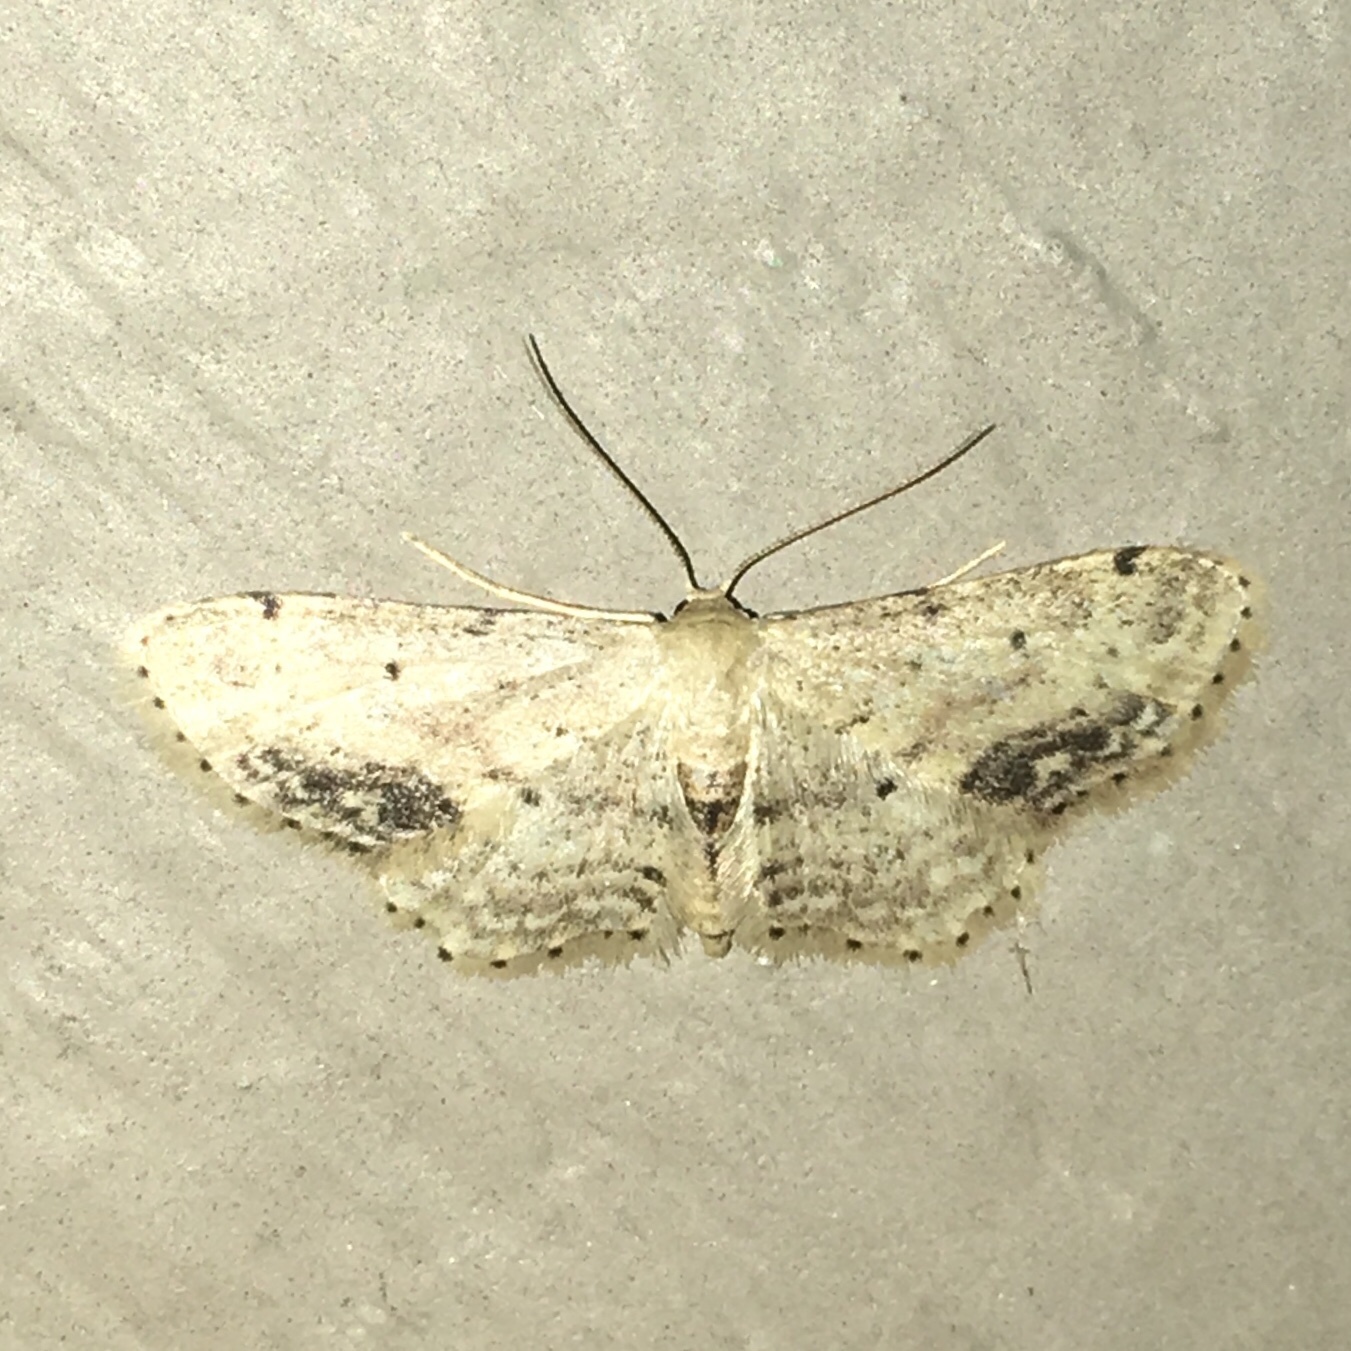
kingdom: Animalia
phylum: Arthropoda
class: Insecta
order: Lepidoptera
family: Geometridae
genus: Idaea
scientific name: Idaea dimidiata
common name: Single-dotted wave
